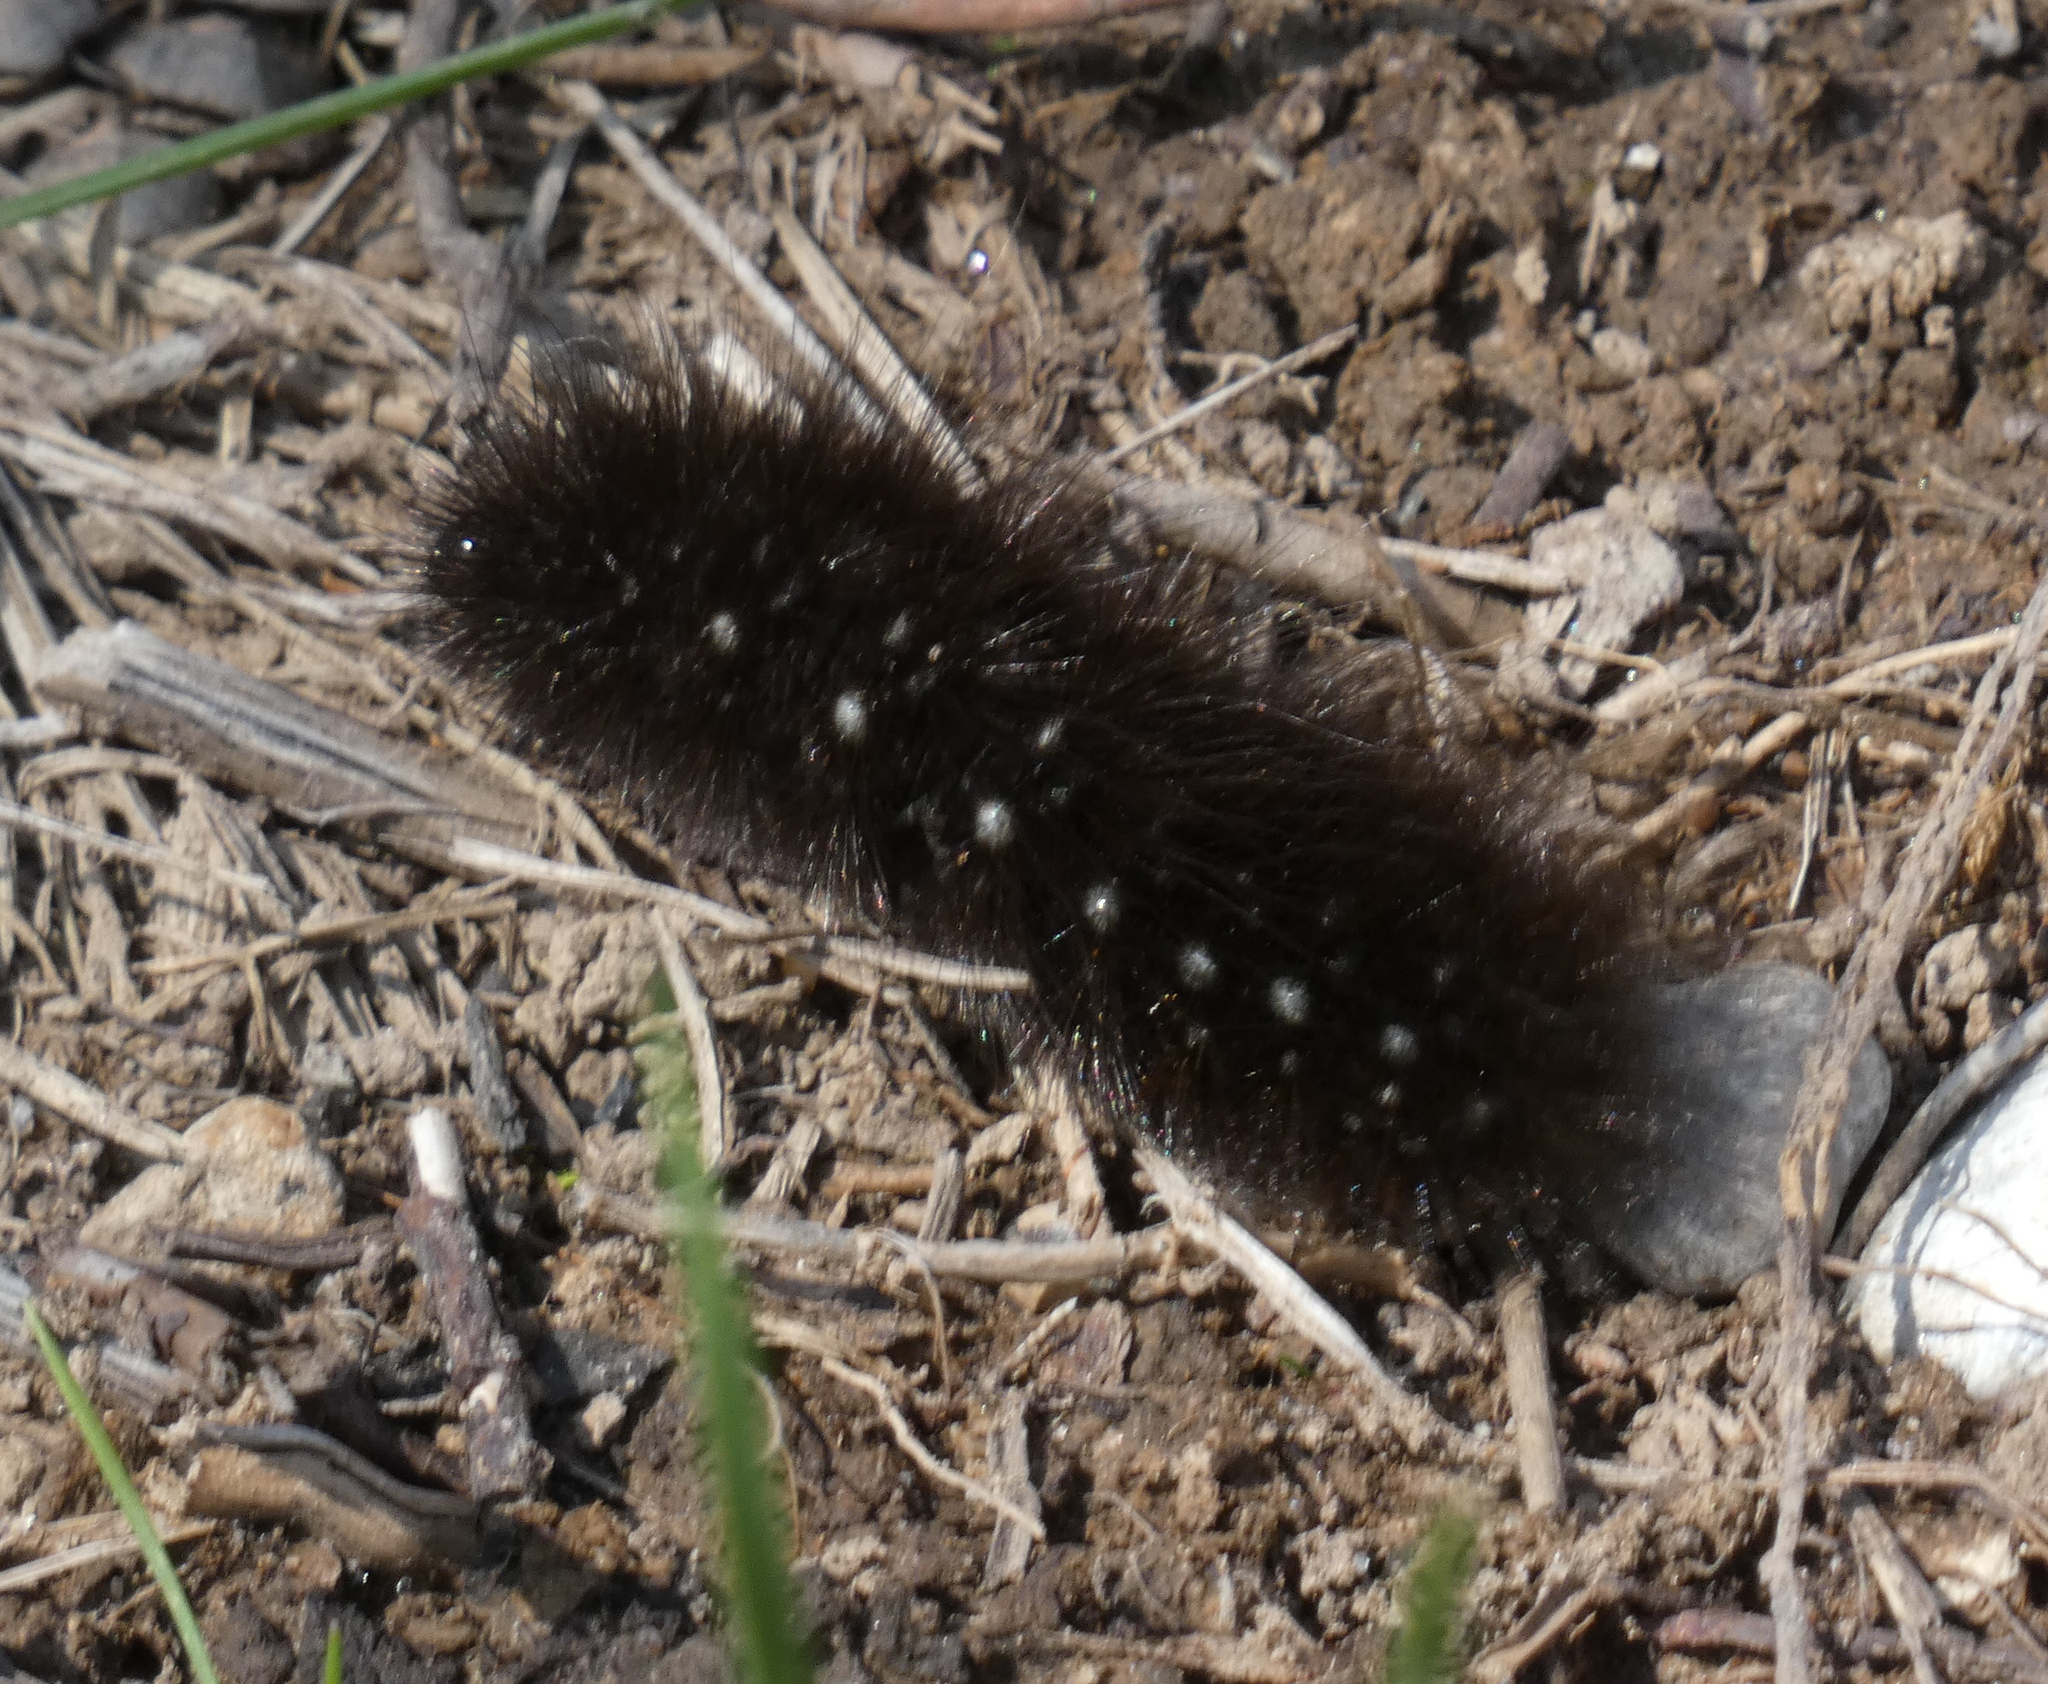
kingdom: Animalia
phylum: Arthropoda
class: Insecta
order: Lepidoptera
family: Erebidae
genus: Arctia
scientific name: Arctia parthenos
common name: St. lawrence tiger moth
